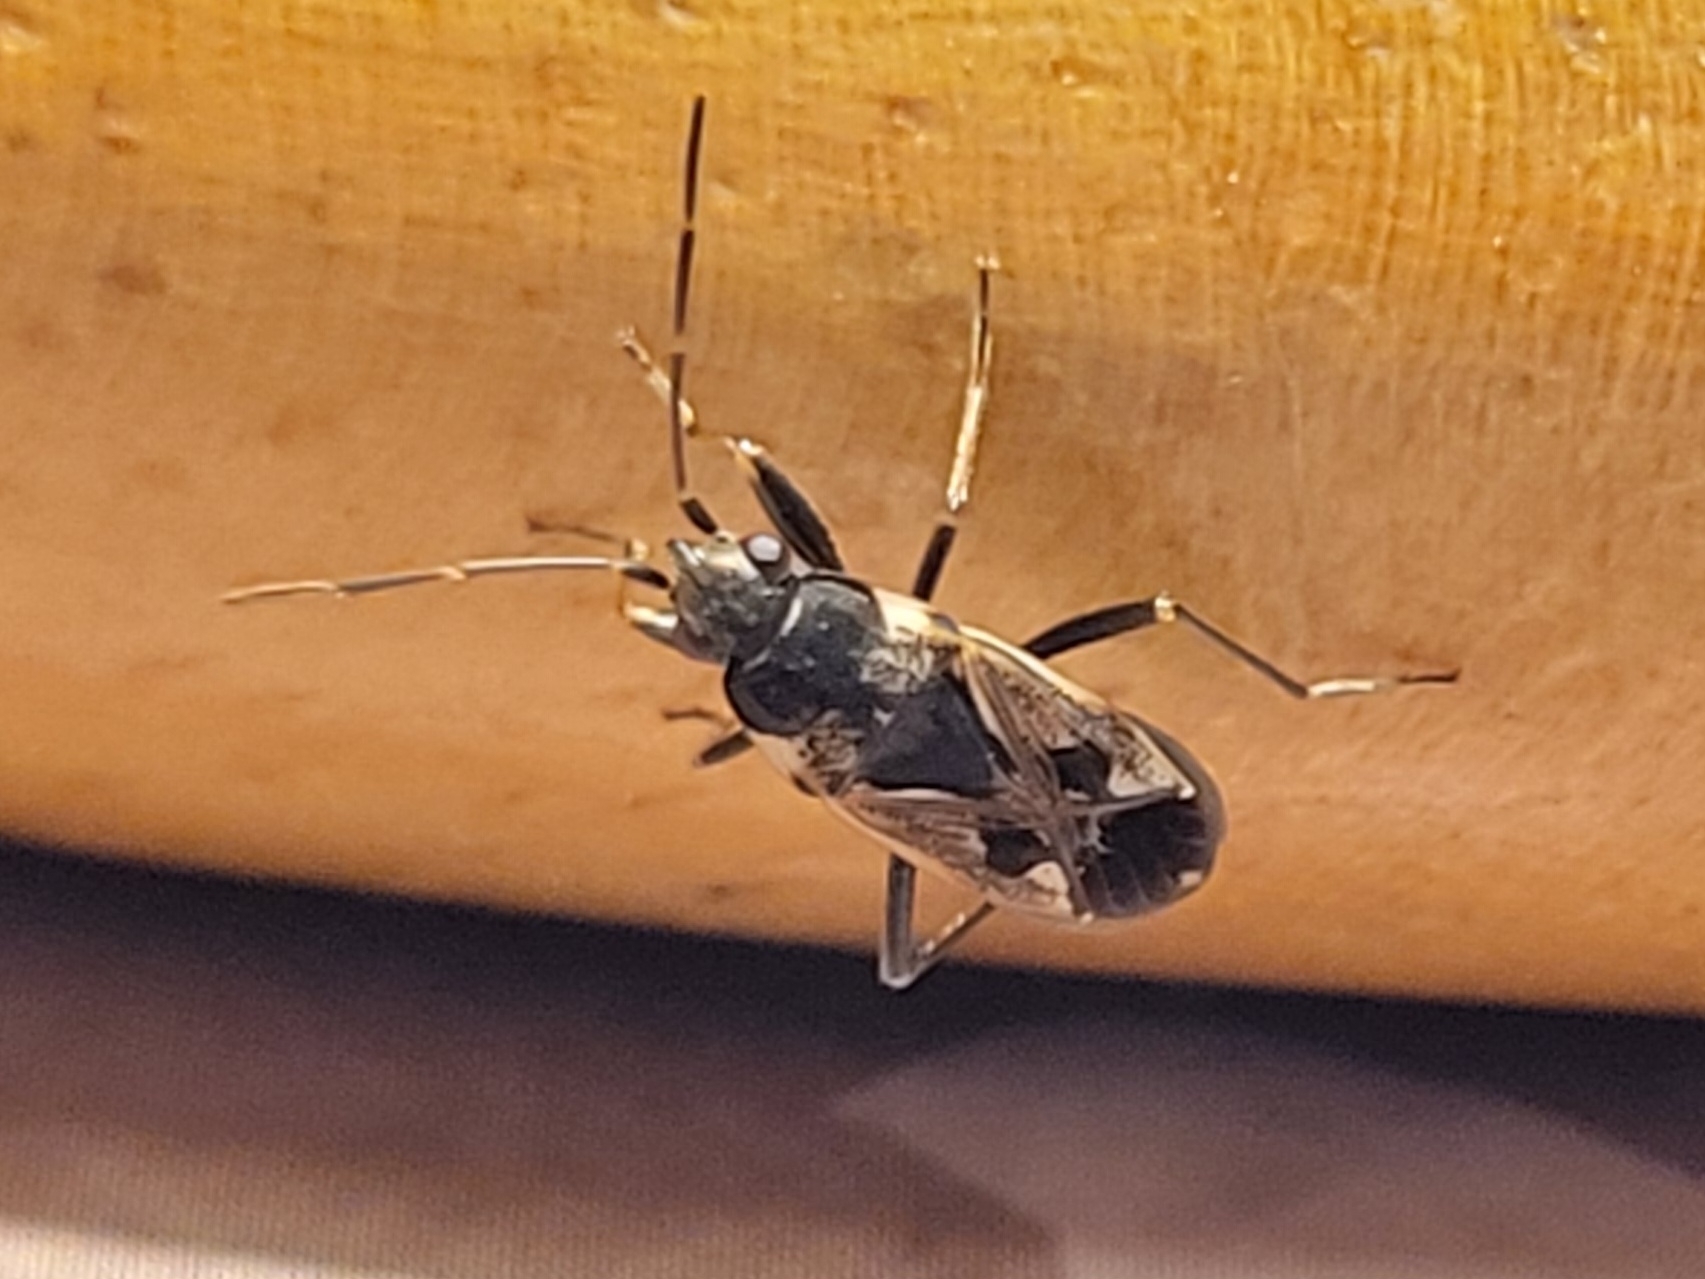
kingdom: Animalia
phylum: Arthropoda
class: Insecta
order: Hemiptera
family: Rhyparochromidae
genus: Rhyparochromus
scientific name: Rhyparochromus vulgaris
